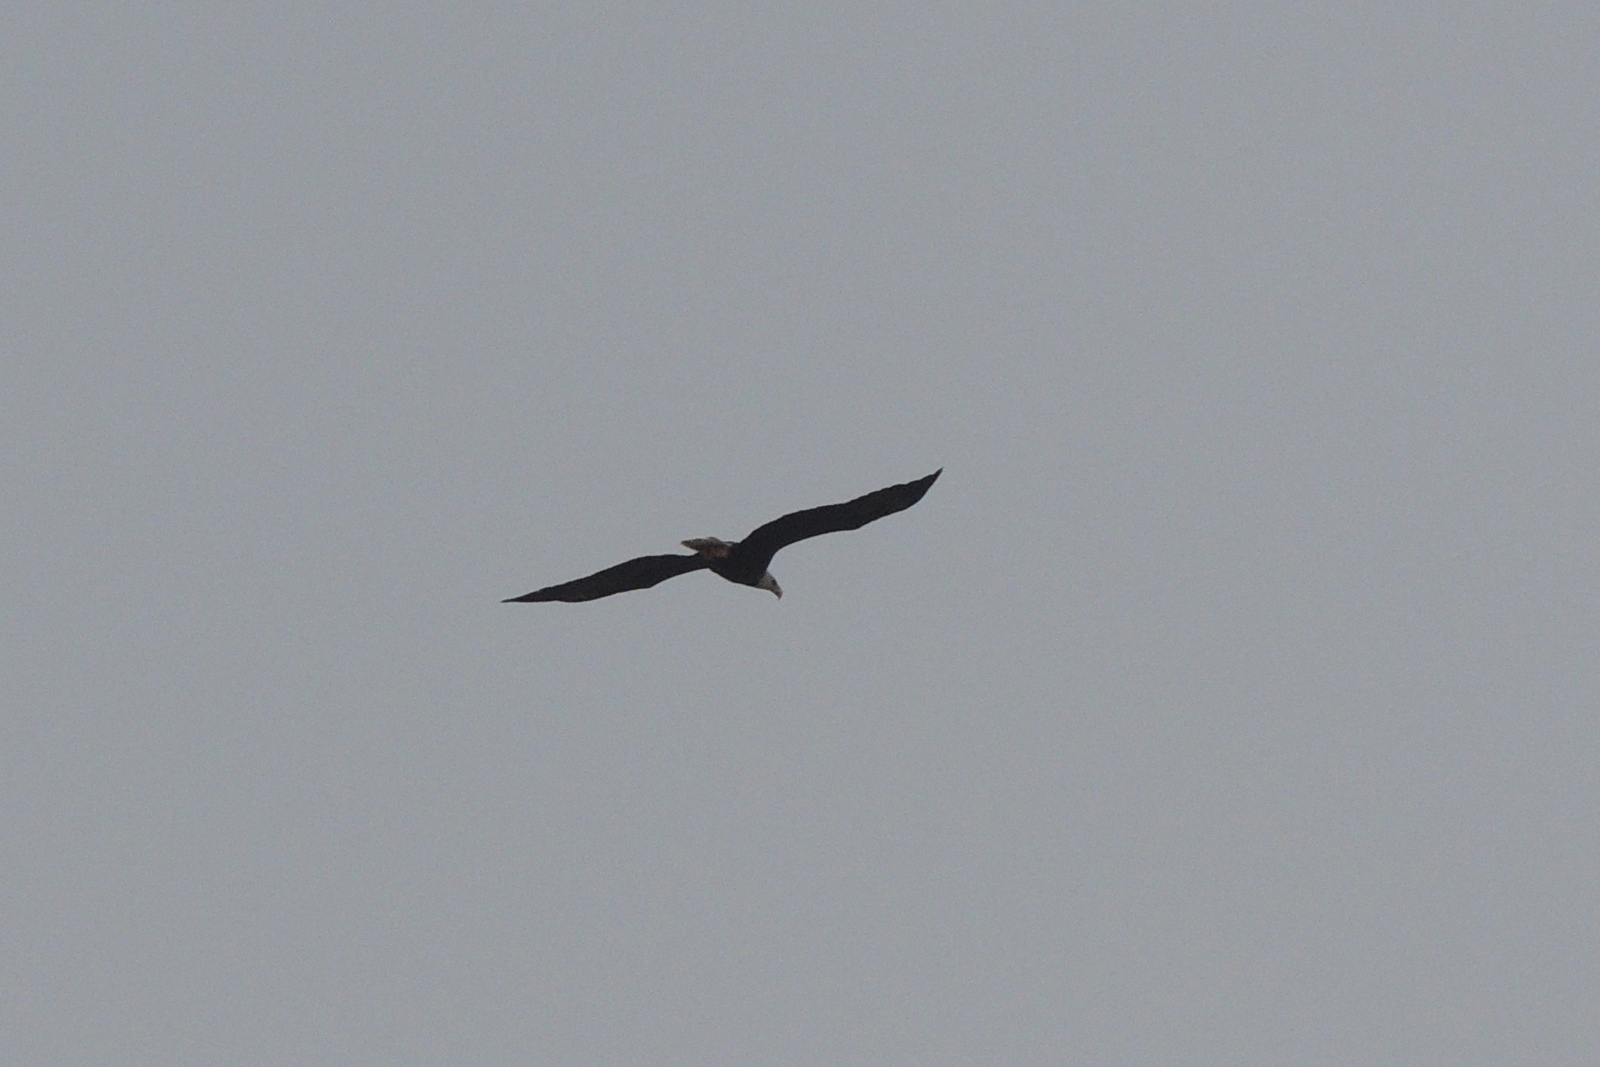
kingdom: Animalia
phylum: Chordata
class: Aves
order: Accipitriformes
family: Accipitridae
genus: Haliaeetus
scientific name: Haliaeetus leucocephalus
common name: Bald eagle
